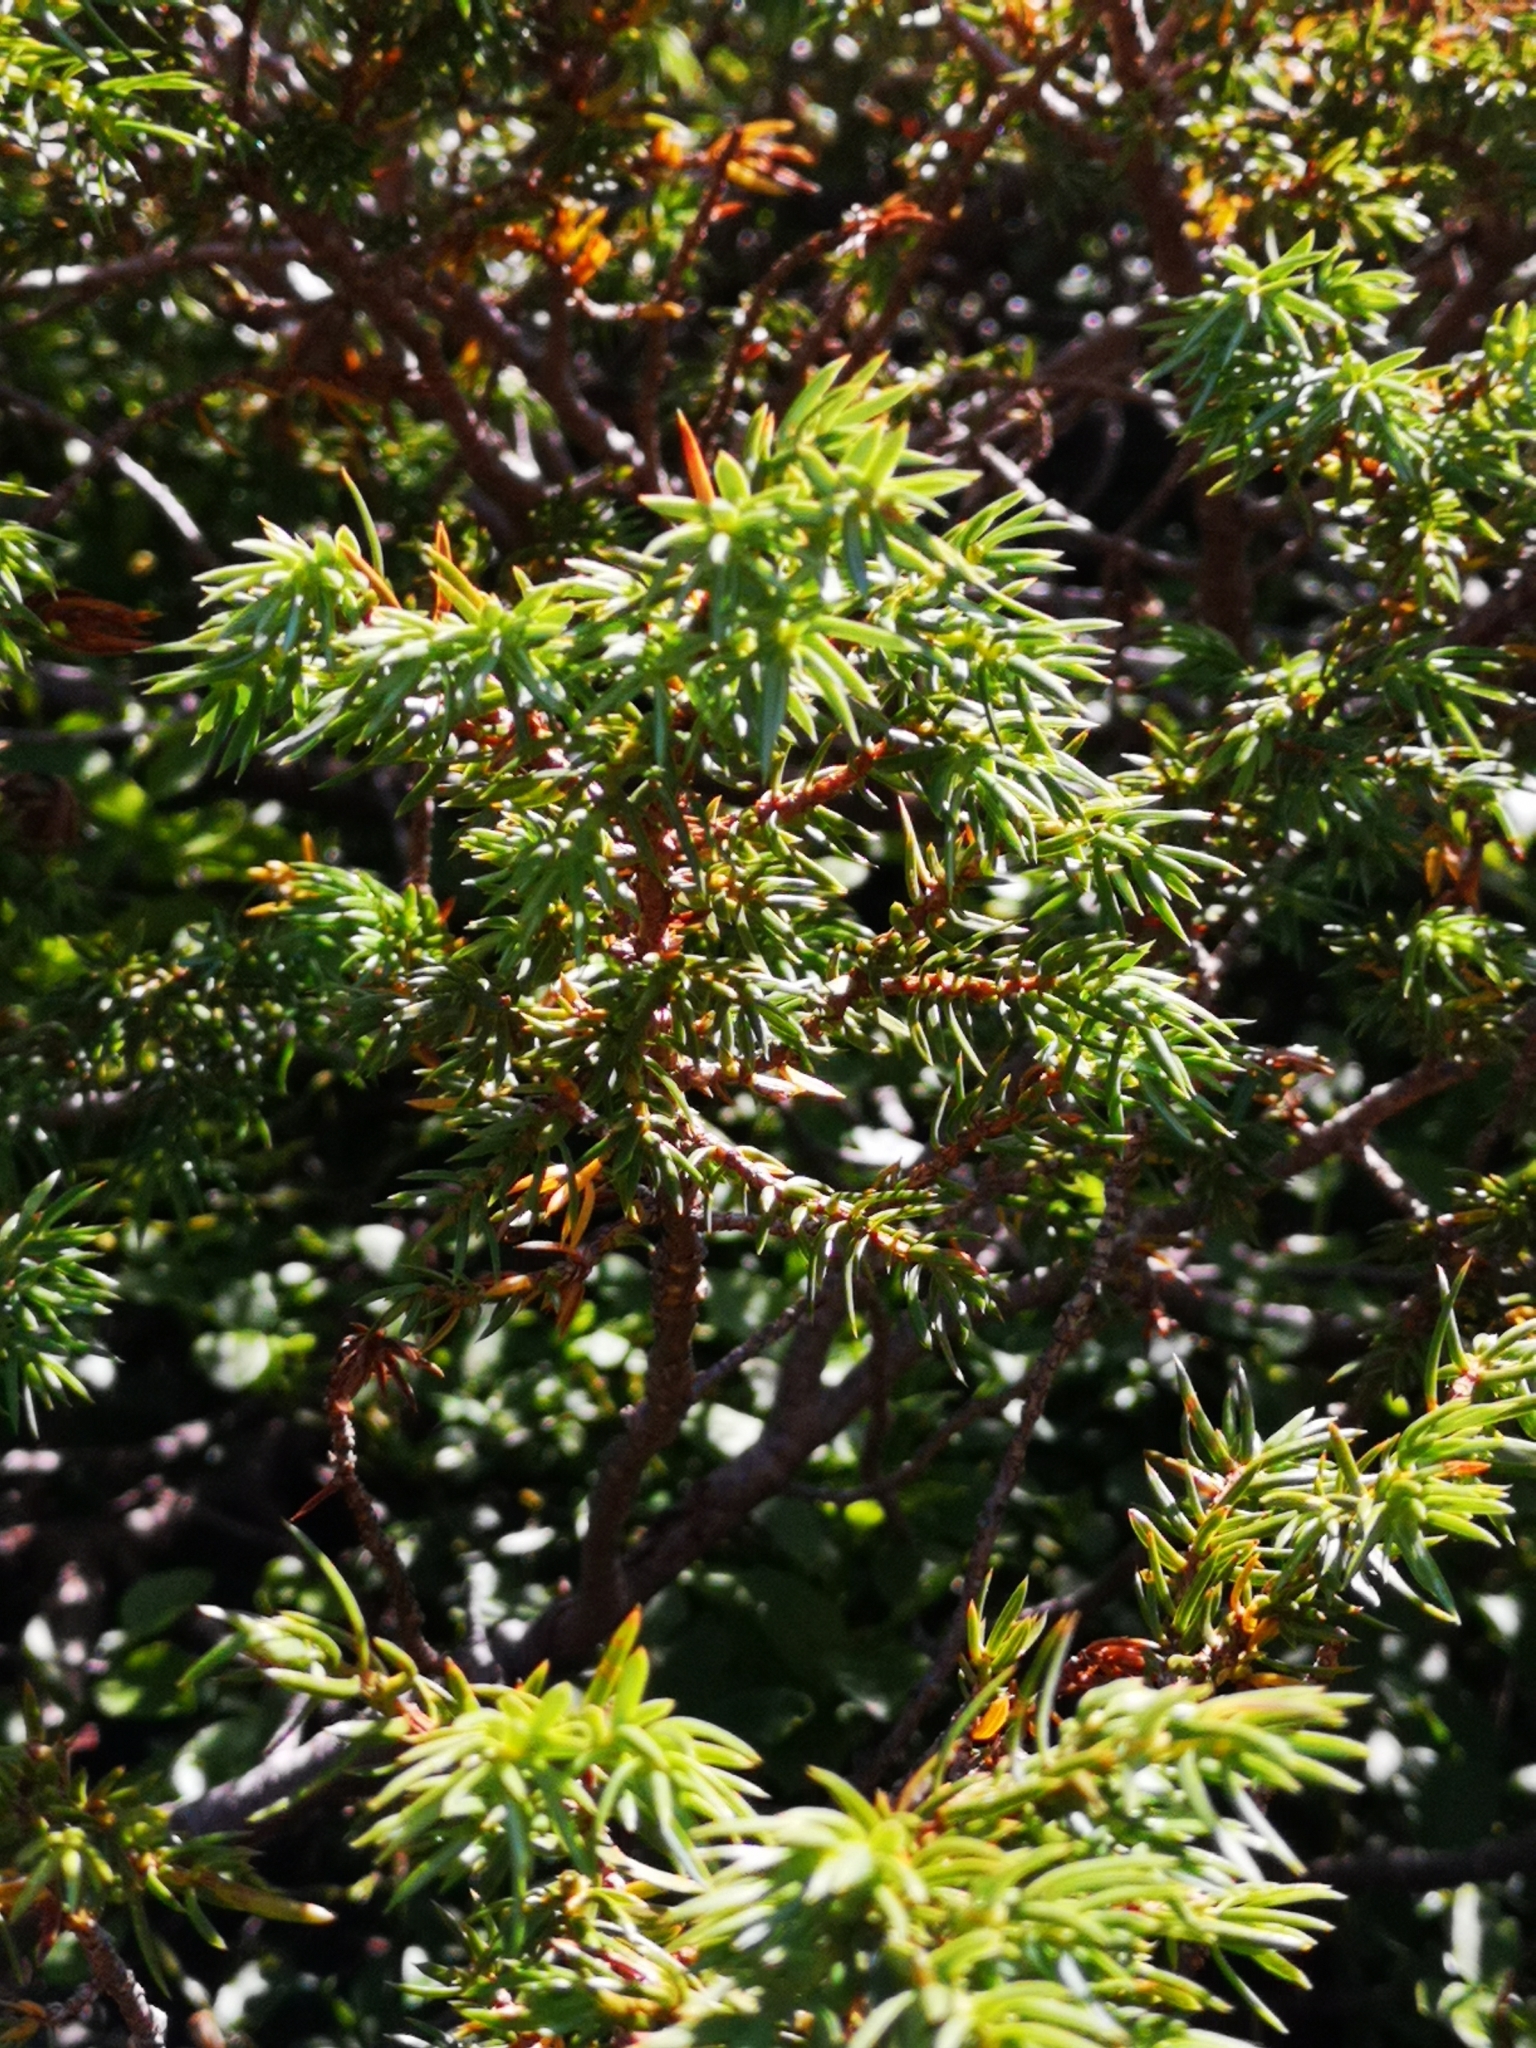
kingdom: Plantae
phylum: Tracheophyta
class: Pinopsida
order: Pinales
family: Cupressaceae
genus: Juniperus
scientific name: Juniperus communis
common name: Common juniper
